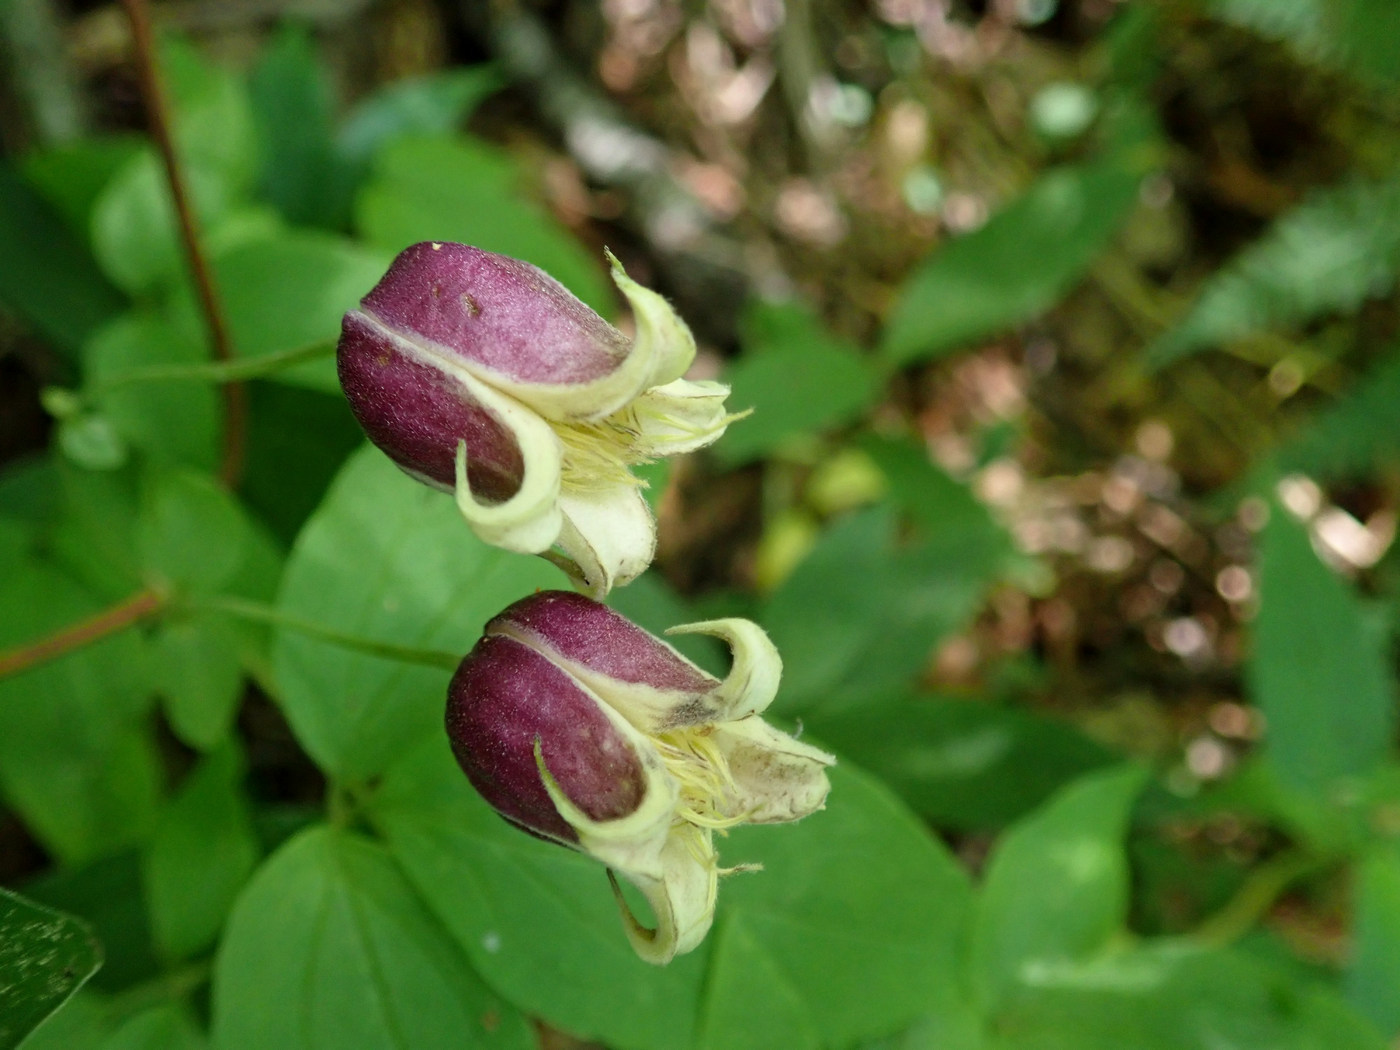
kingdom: Plantae
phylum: Tracheophyta
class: Magnoliopsida
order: Ranunculales
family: Ranunculaceae
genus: Clematis
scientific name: Clematis viorna
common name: Leather-flower
